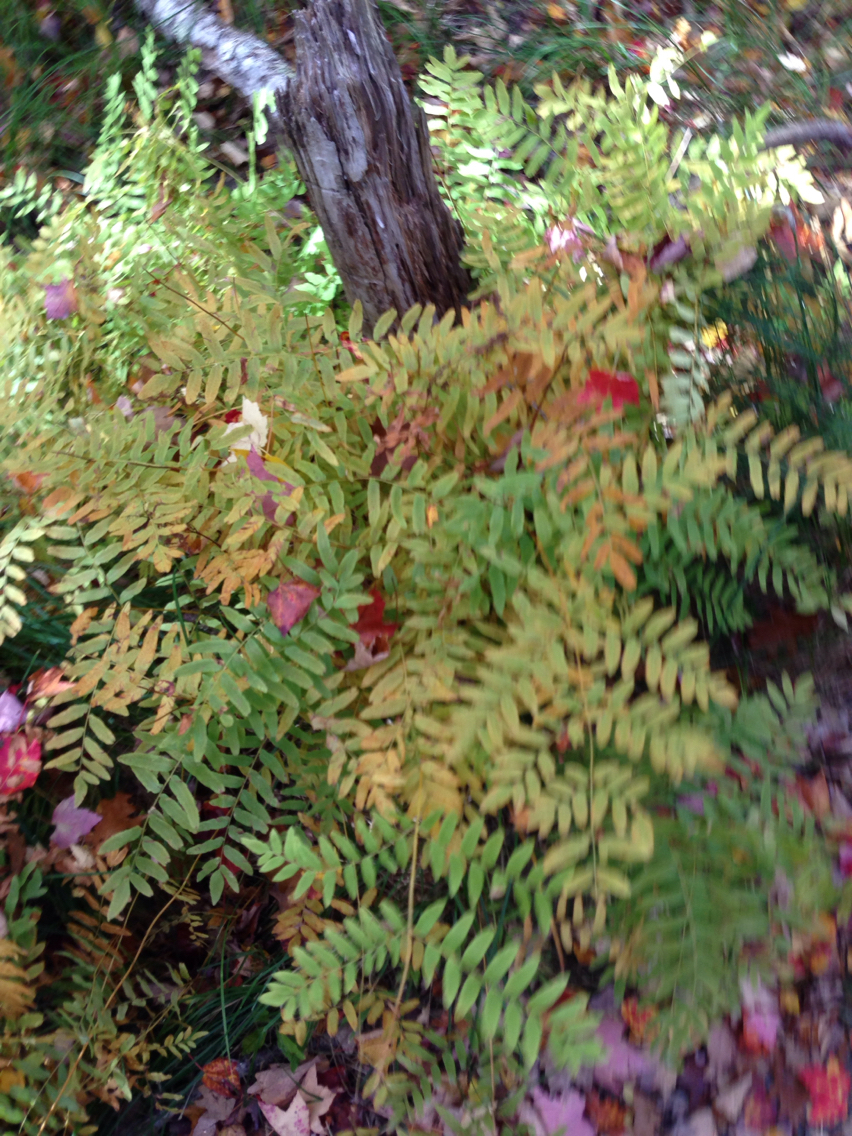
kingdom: Plantae
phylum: Tracheophyta
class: Polypodiopsida
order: Osmundales
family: Osmundaceae
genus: Osmunda
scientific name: Osmunda spectabilis
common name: American royal fern
